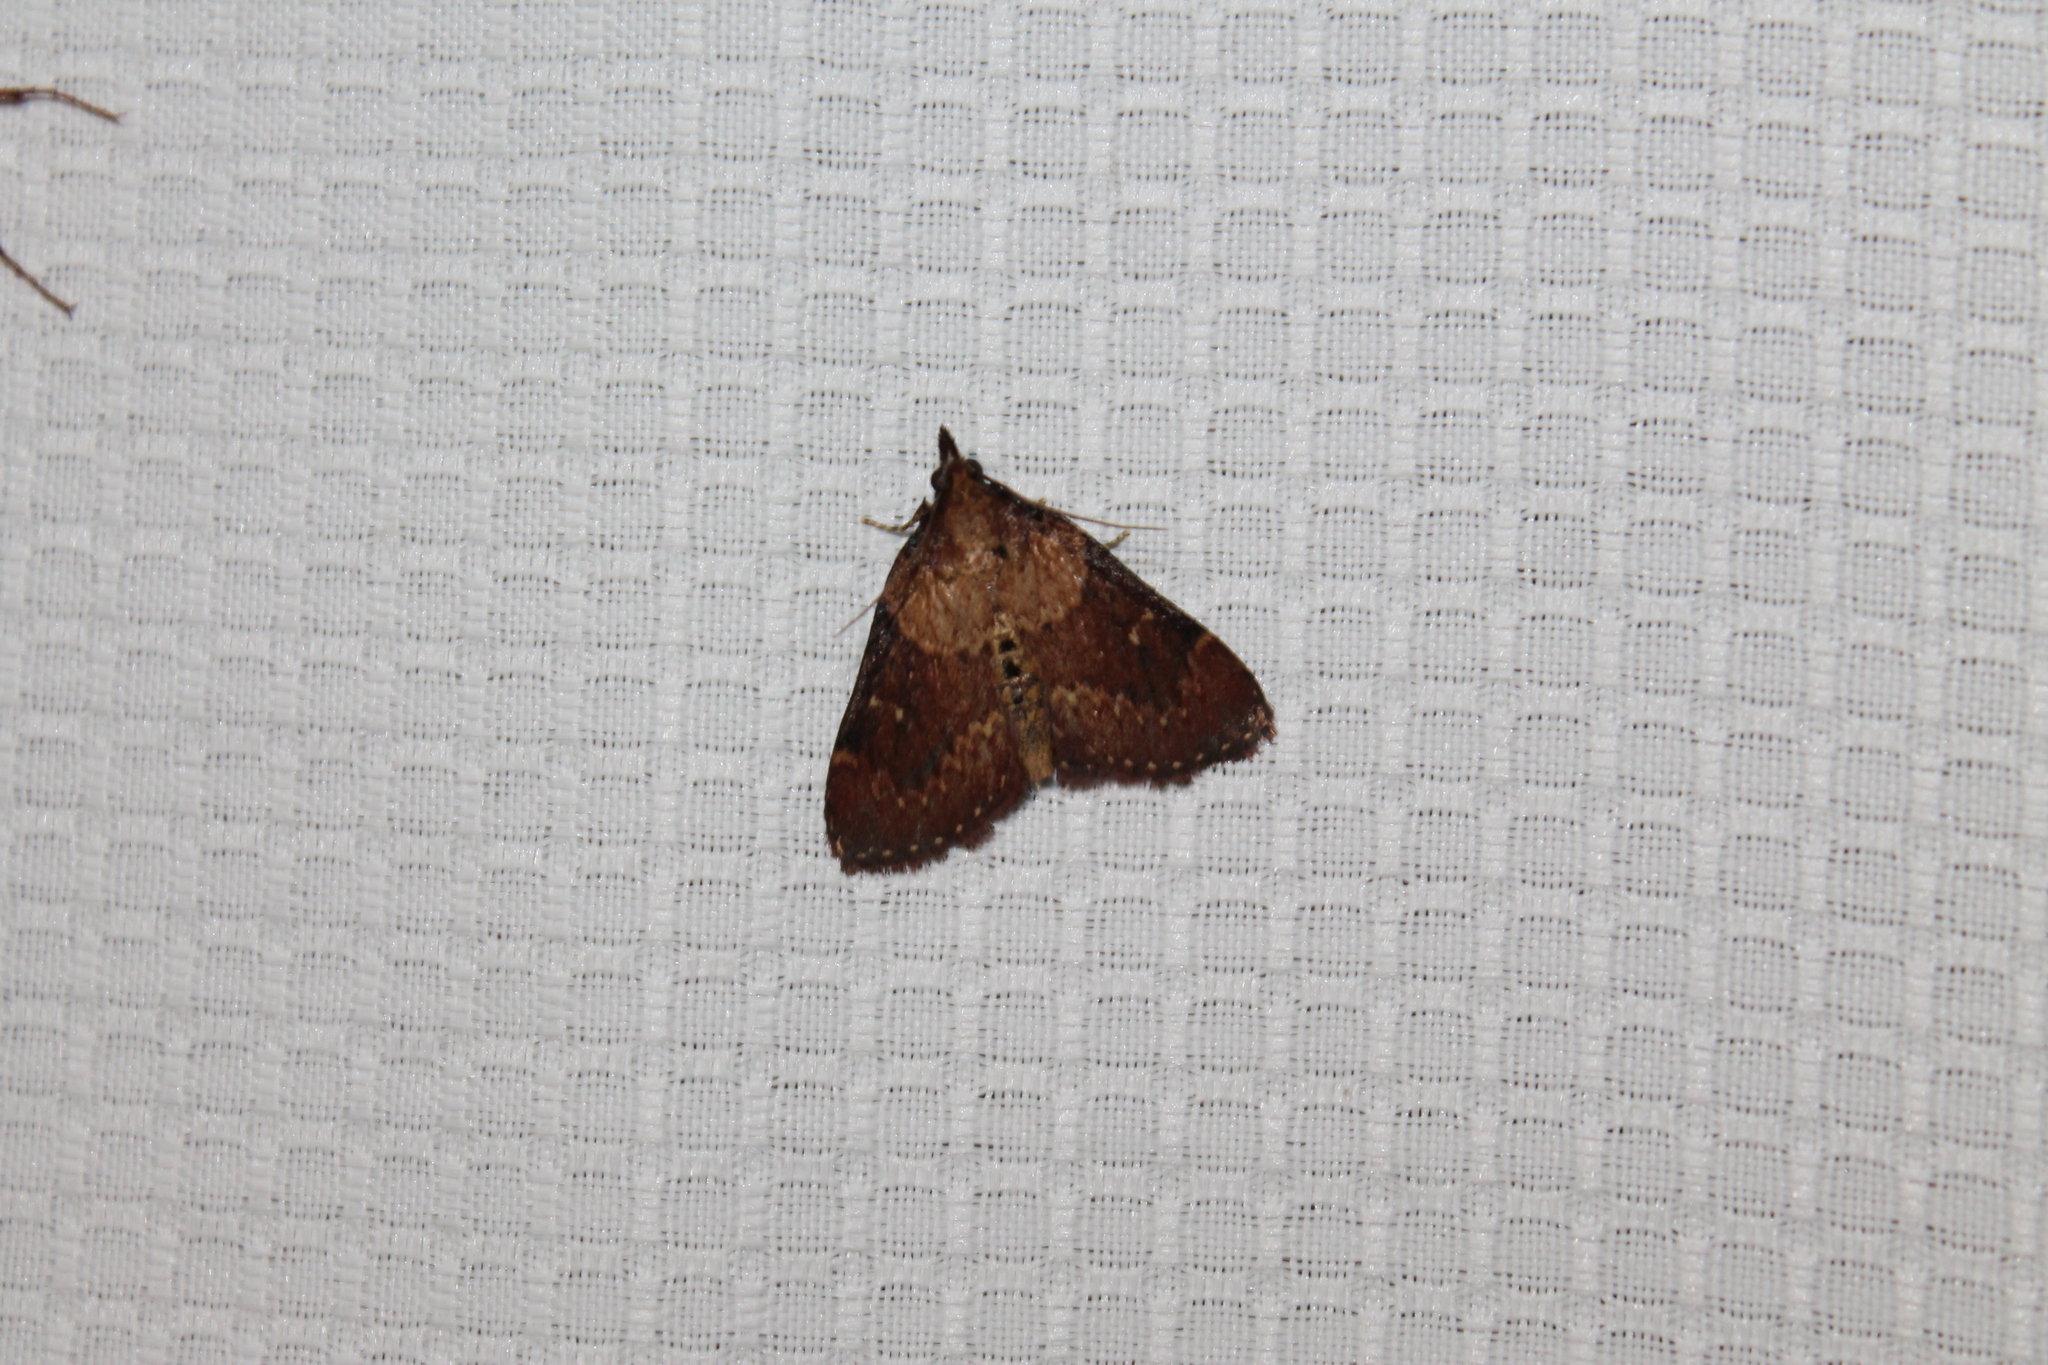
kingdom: Animalia
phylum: Arthropoda
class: Insecta
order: Lepidoptera
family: Pyralidae
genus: Omphalocera
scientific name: Omphalocera munroei
